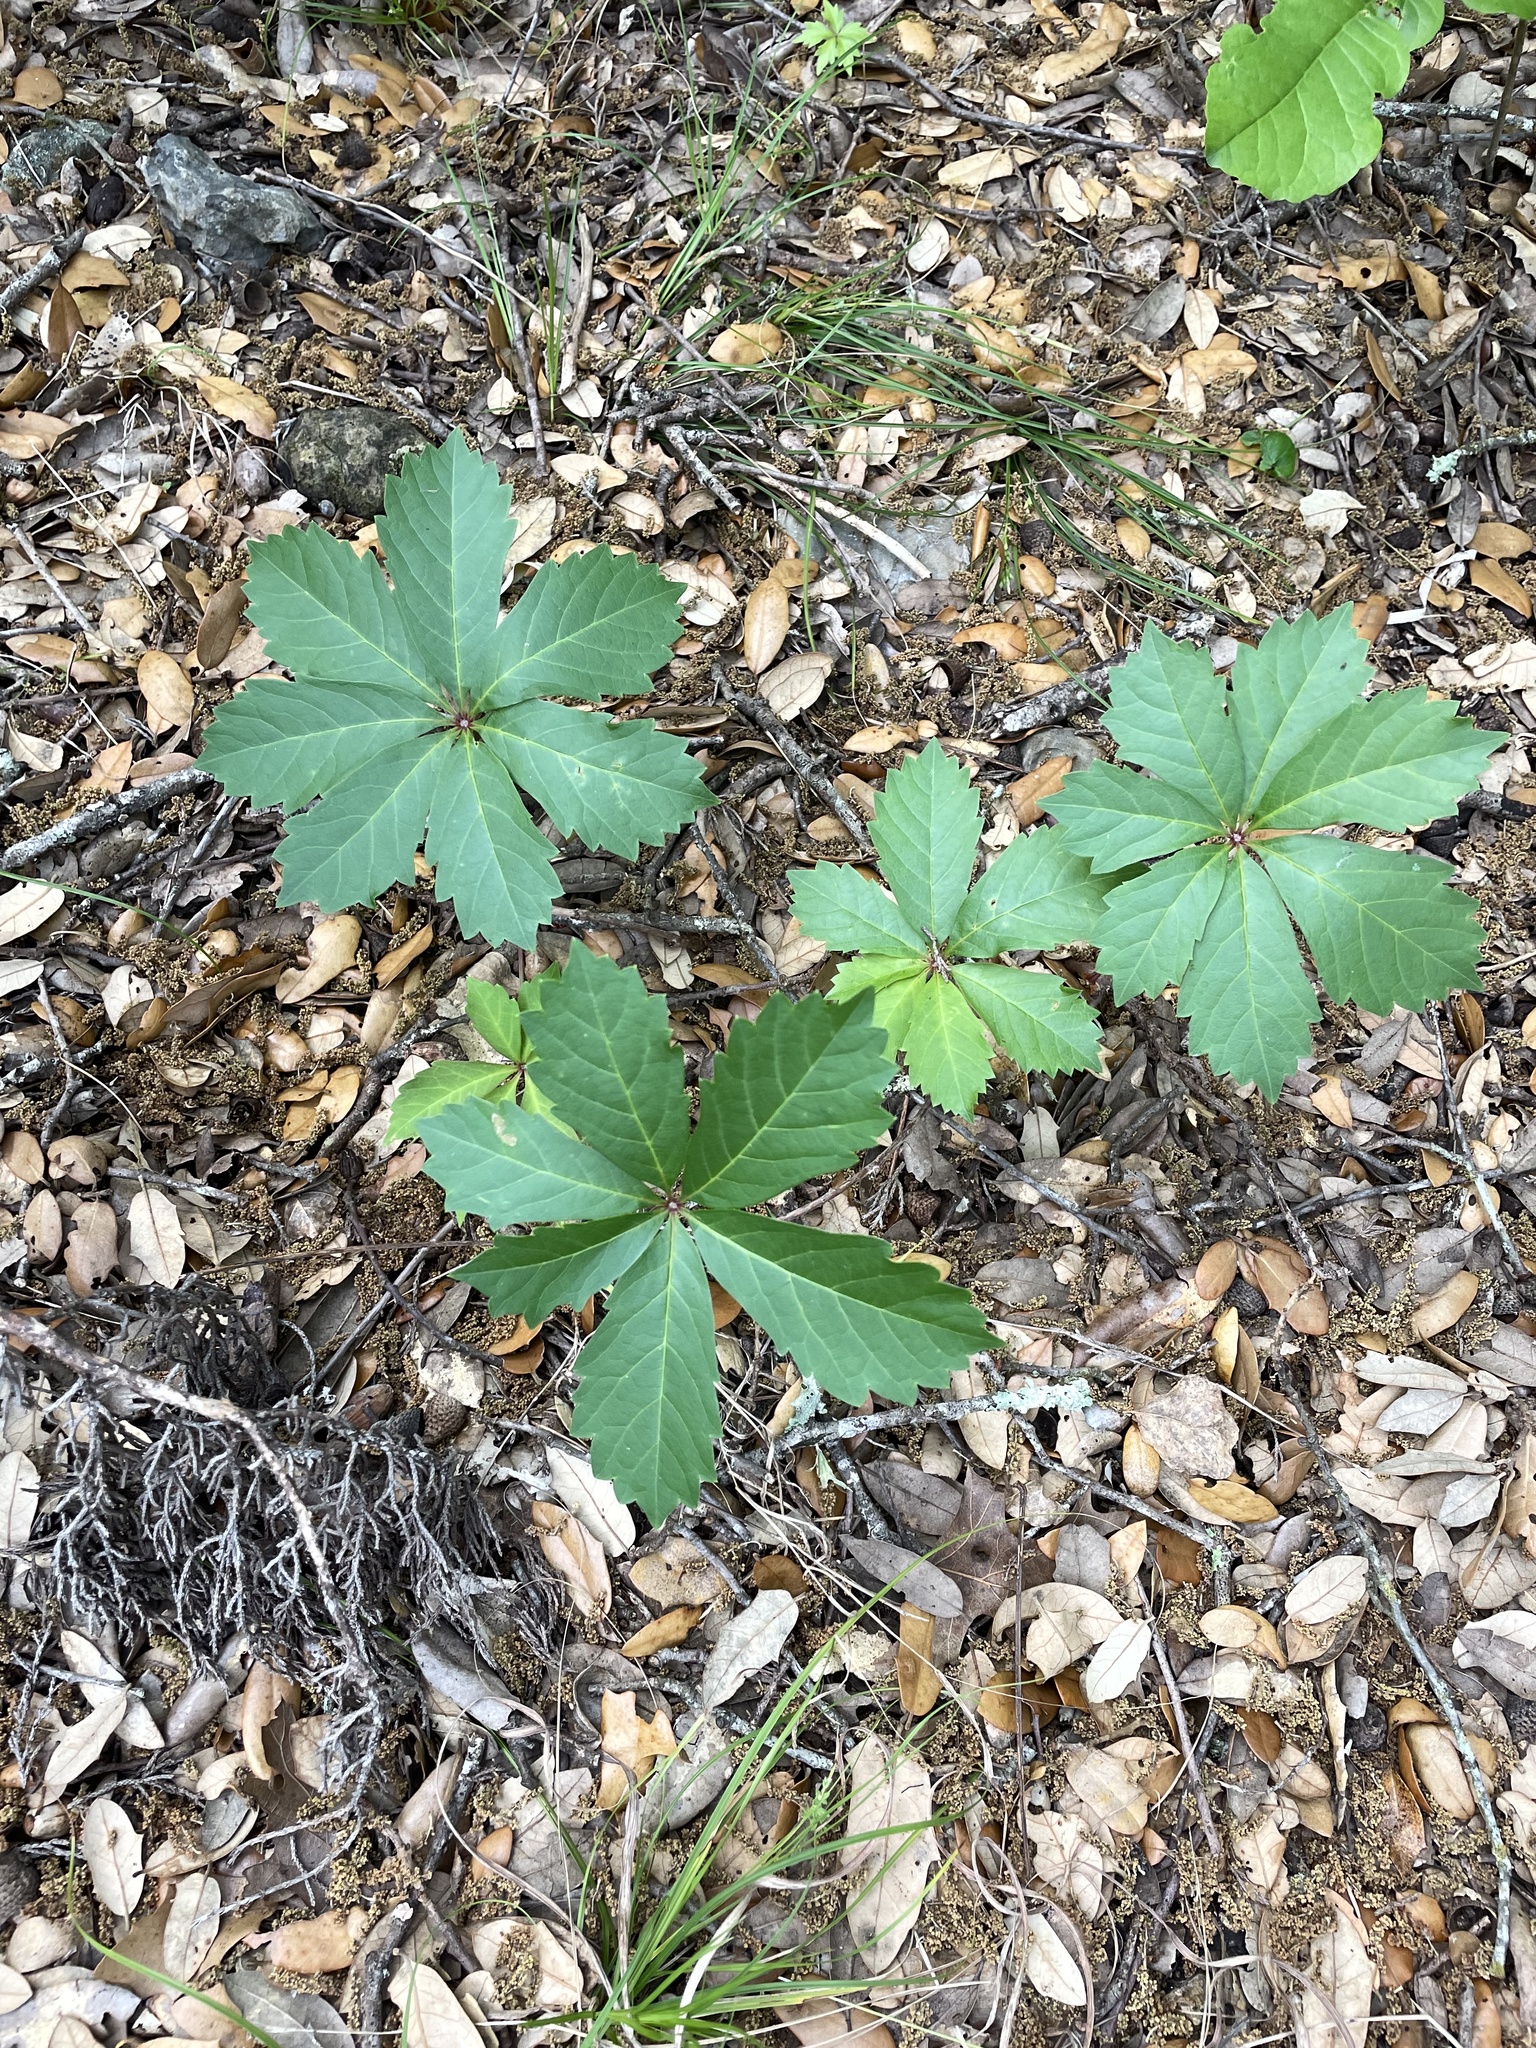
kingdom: Plantae
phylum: Tracheophyta
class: Magnoliopsida
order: Vitales
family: Vitaceae
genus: Parthenocissus
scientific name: Parthenocissus heptaphylla
